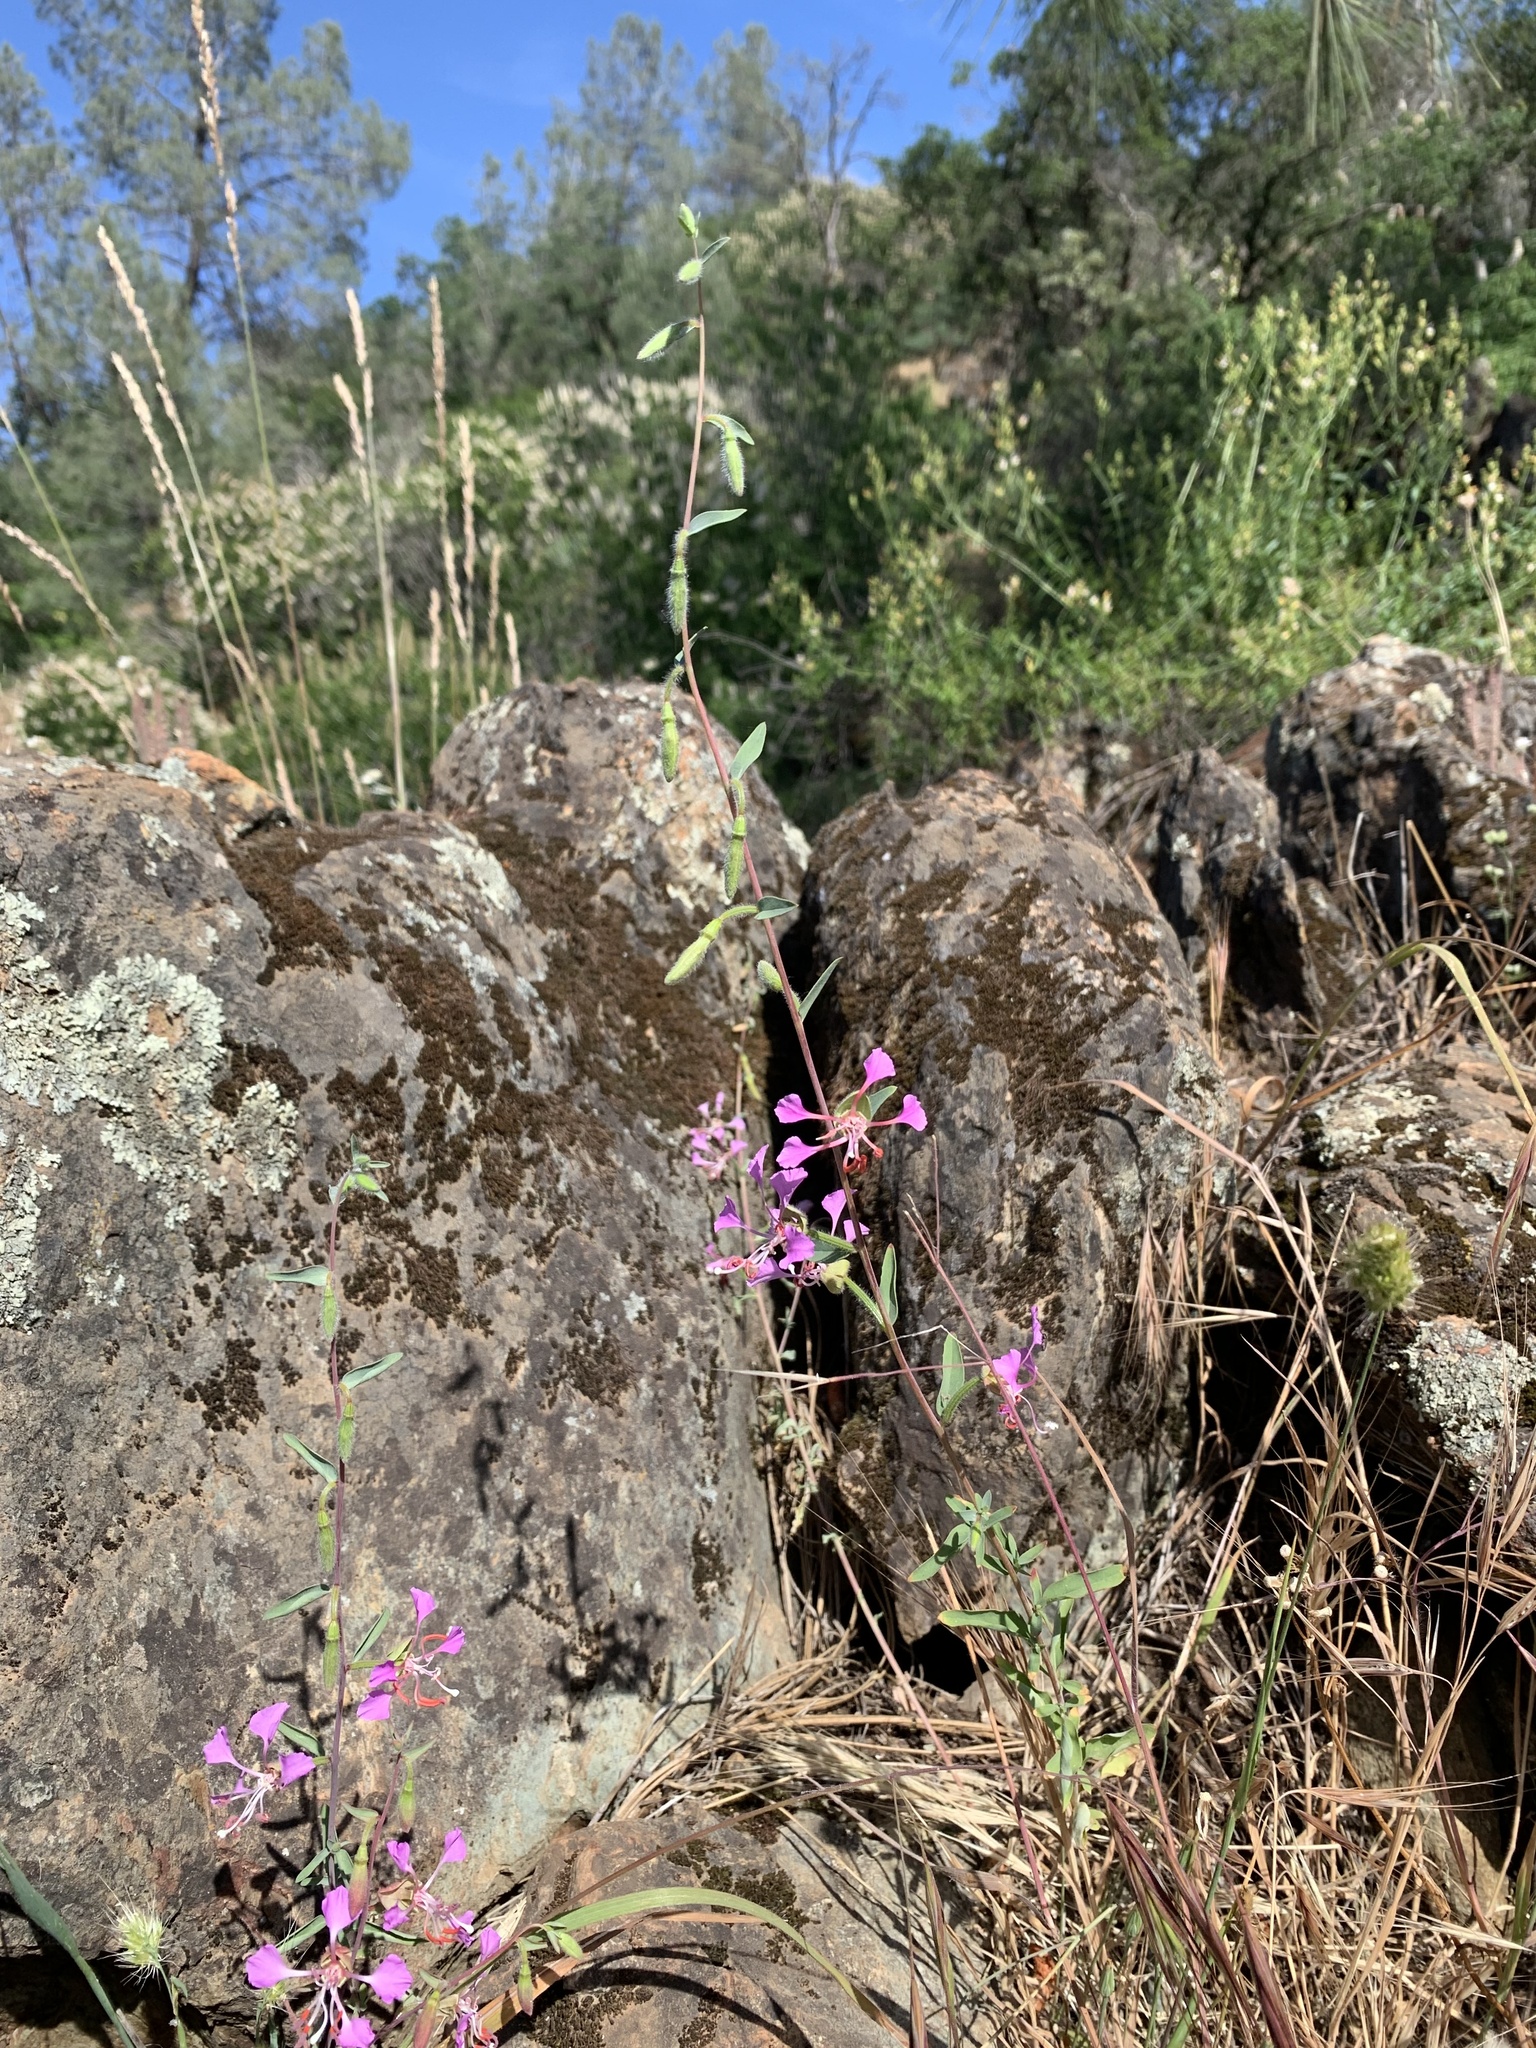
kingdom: Plantae
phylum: Tracheophyta
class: Magnoliopsida
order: Myrtales
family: Onagraceae
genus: Clarkia
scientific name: Clarkia unguiculata
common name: Clarkia
